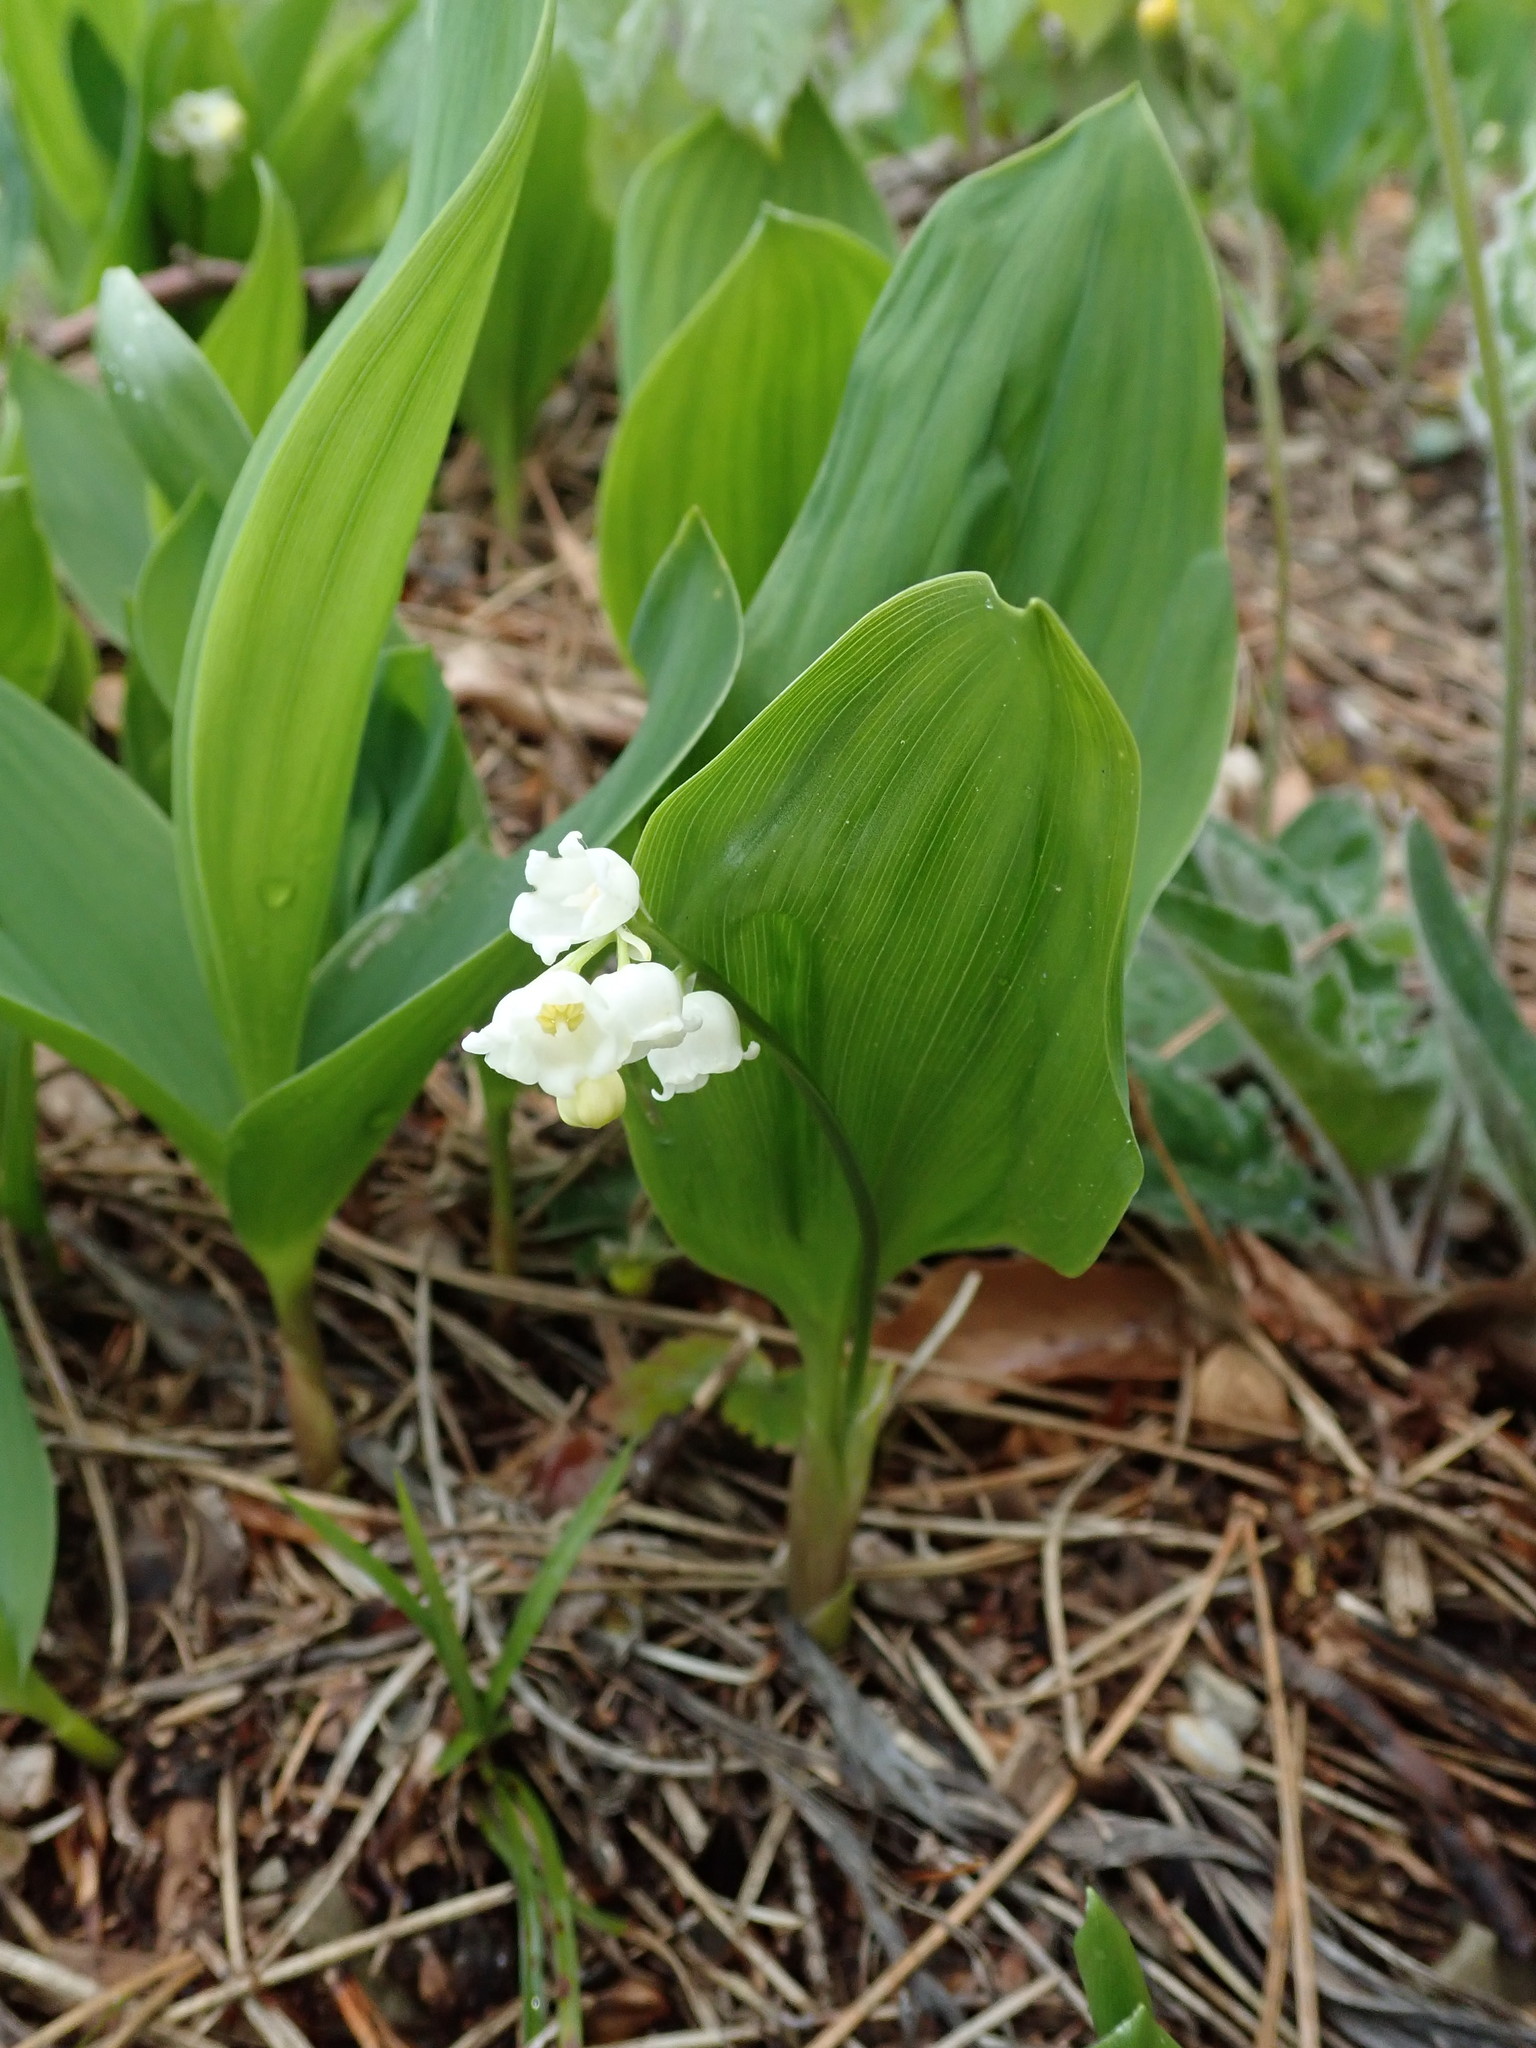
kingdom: Plantae
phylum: Tracheophyta
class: Liliopsida
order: Asparagales
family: Asparagaceae
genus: Convallaria
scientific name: Convallaria majalis
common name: Lily-of-the-valley
